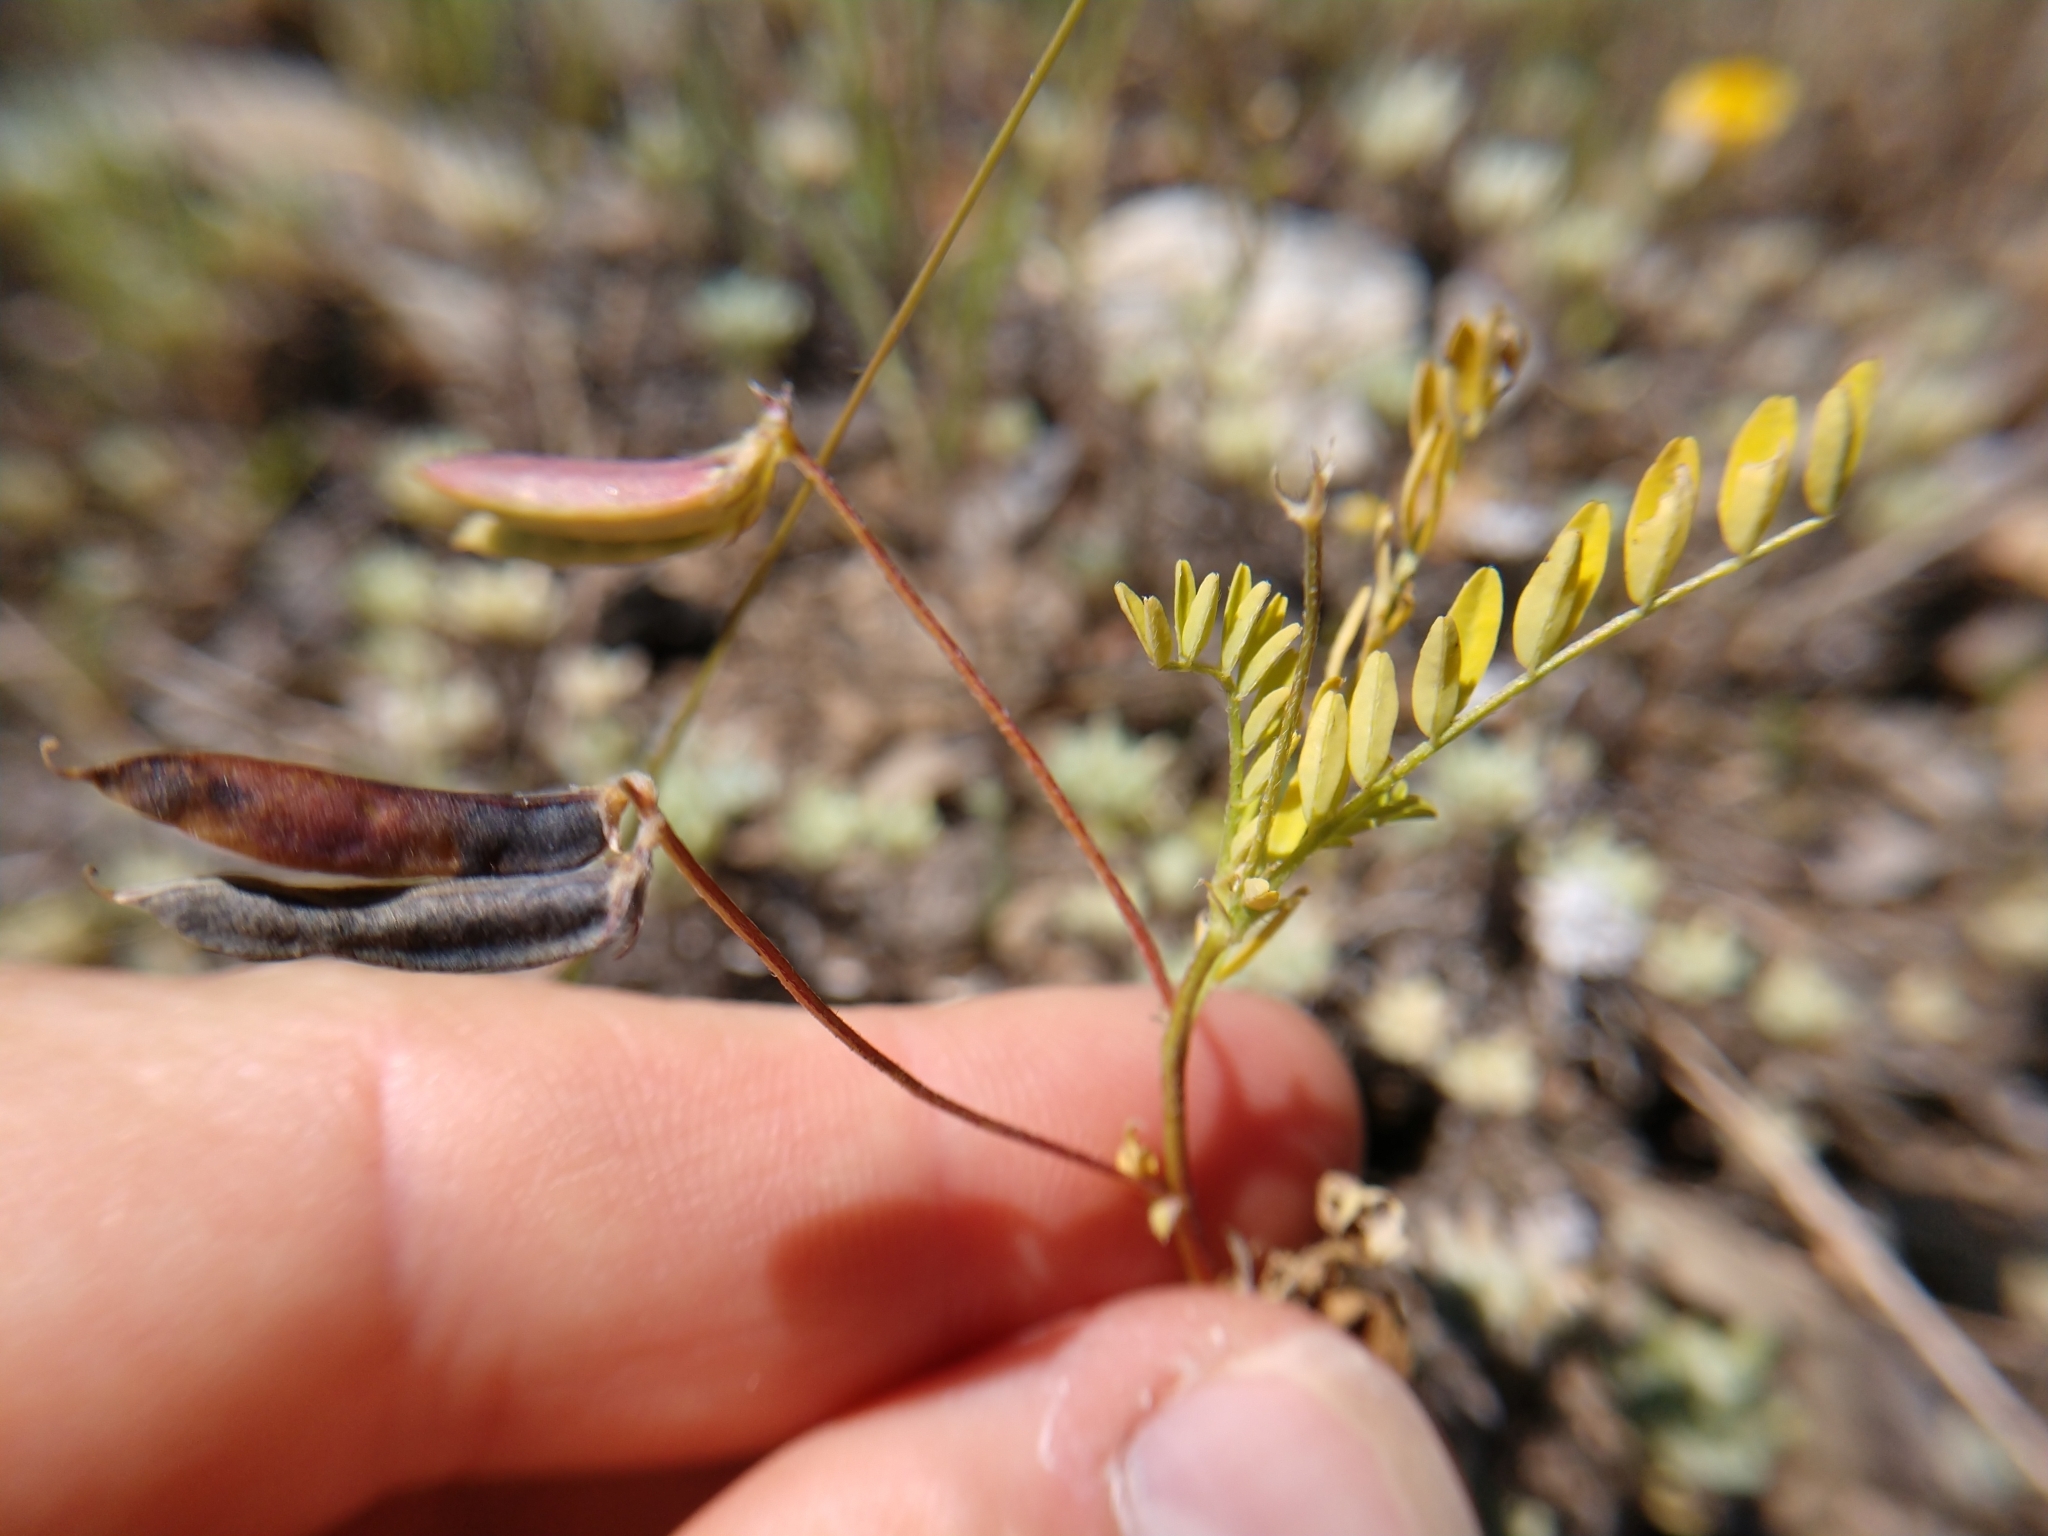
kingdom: Plantae
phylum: Tracheophyta
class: Magnoliopsida
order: Fabales
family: Fabaceae
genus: Astragalus
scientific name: Astragalus nuttallianus
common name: Smallflowered milkvetch
